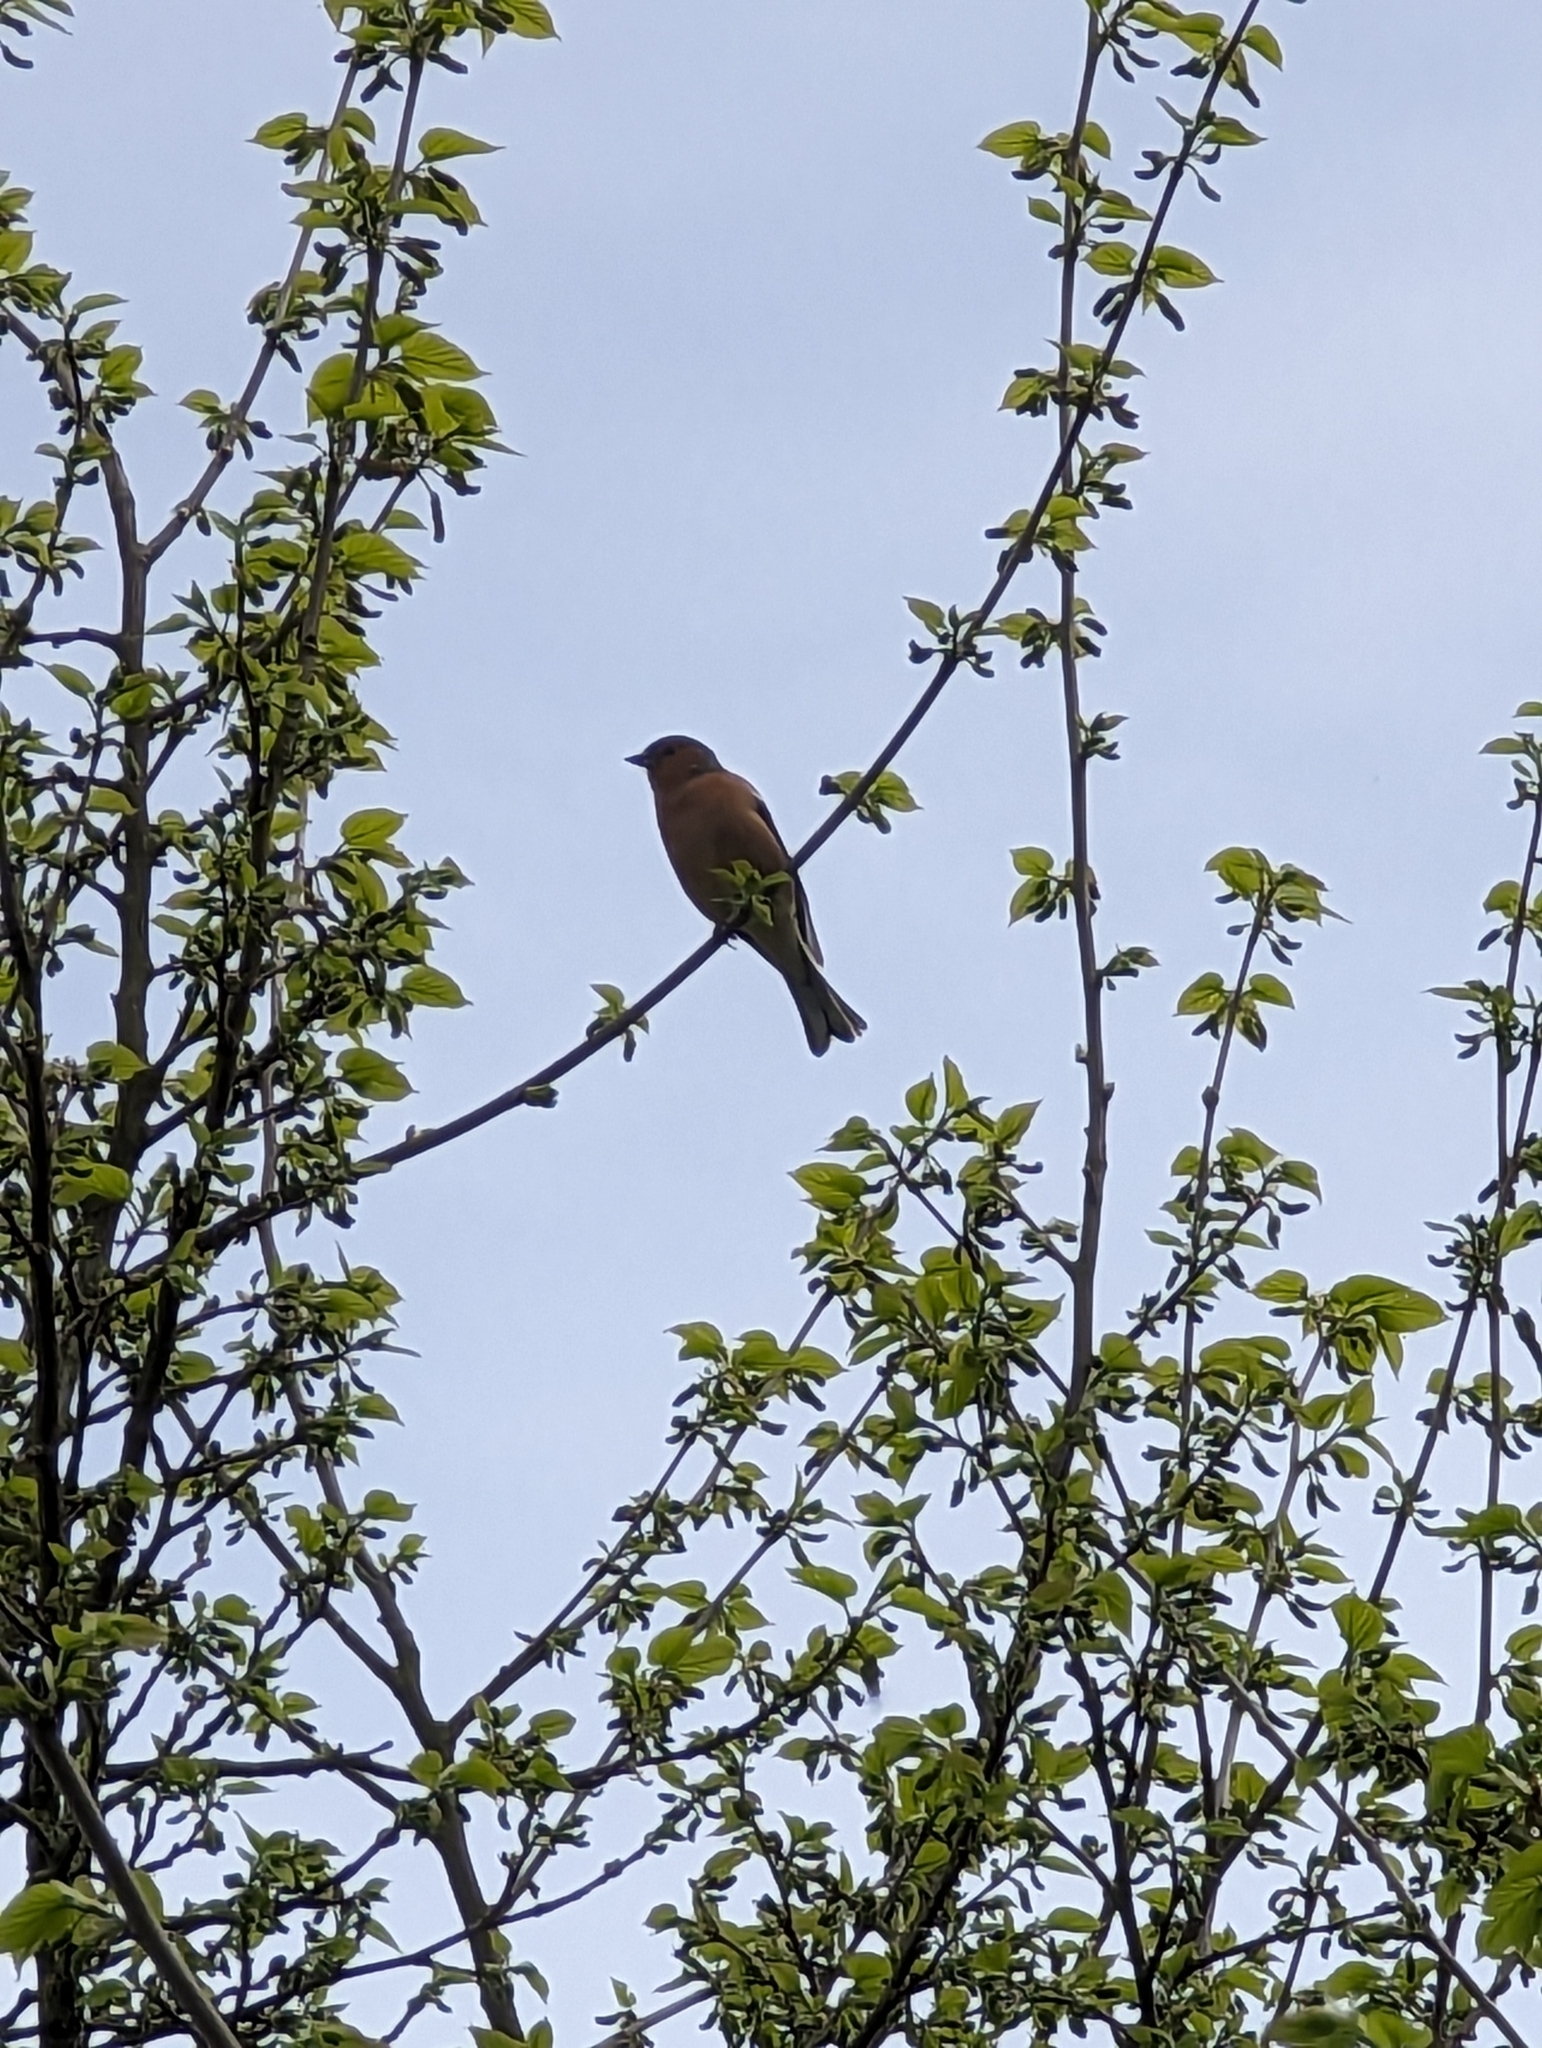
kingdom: Animalia
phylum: Chordata
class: Aves
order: Passeriformes
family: Fringillidae
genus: Fringilla
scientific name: Fringilla coelebs
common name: Common chaffinch
